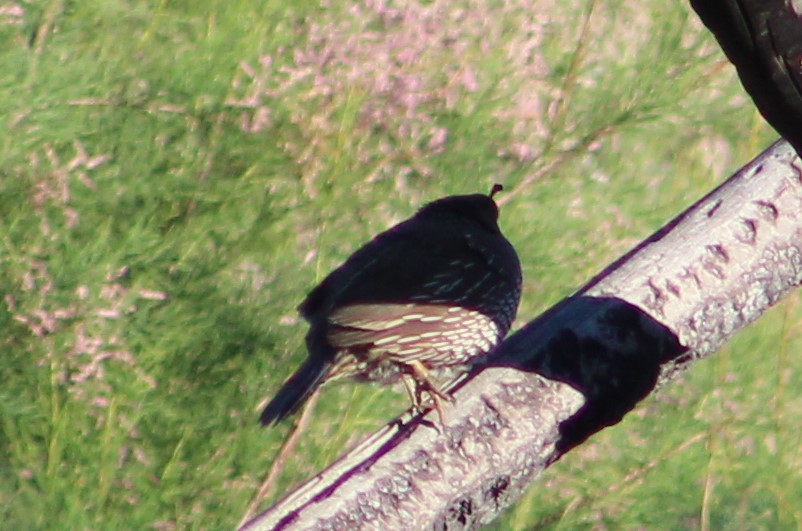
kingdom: Animalia
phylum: Chordata
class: Aves
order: Galliformes
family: Odontophoridae
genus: Callipepla
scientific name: Callipepla californica
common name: California quail
